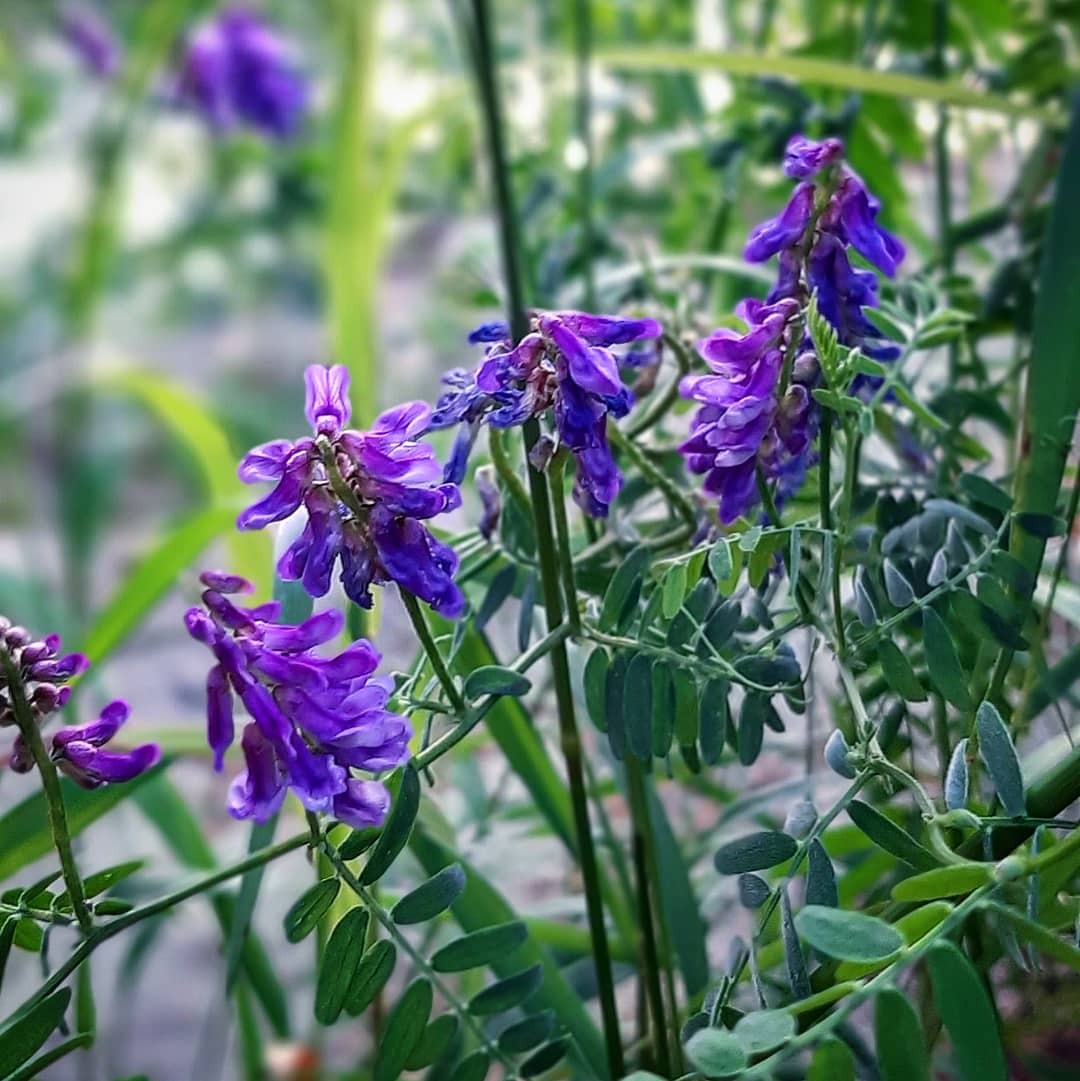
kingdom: Plantae
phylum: Tracheophyta
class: Magnoliopsida
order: Fabales
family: Fabaceae
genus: Vicia
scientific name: Vicia cracca
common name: Bird vetch
